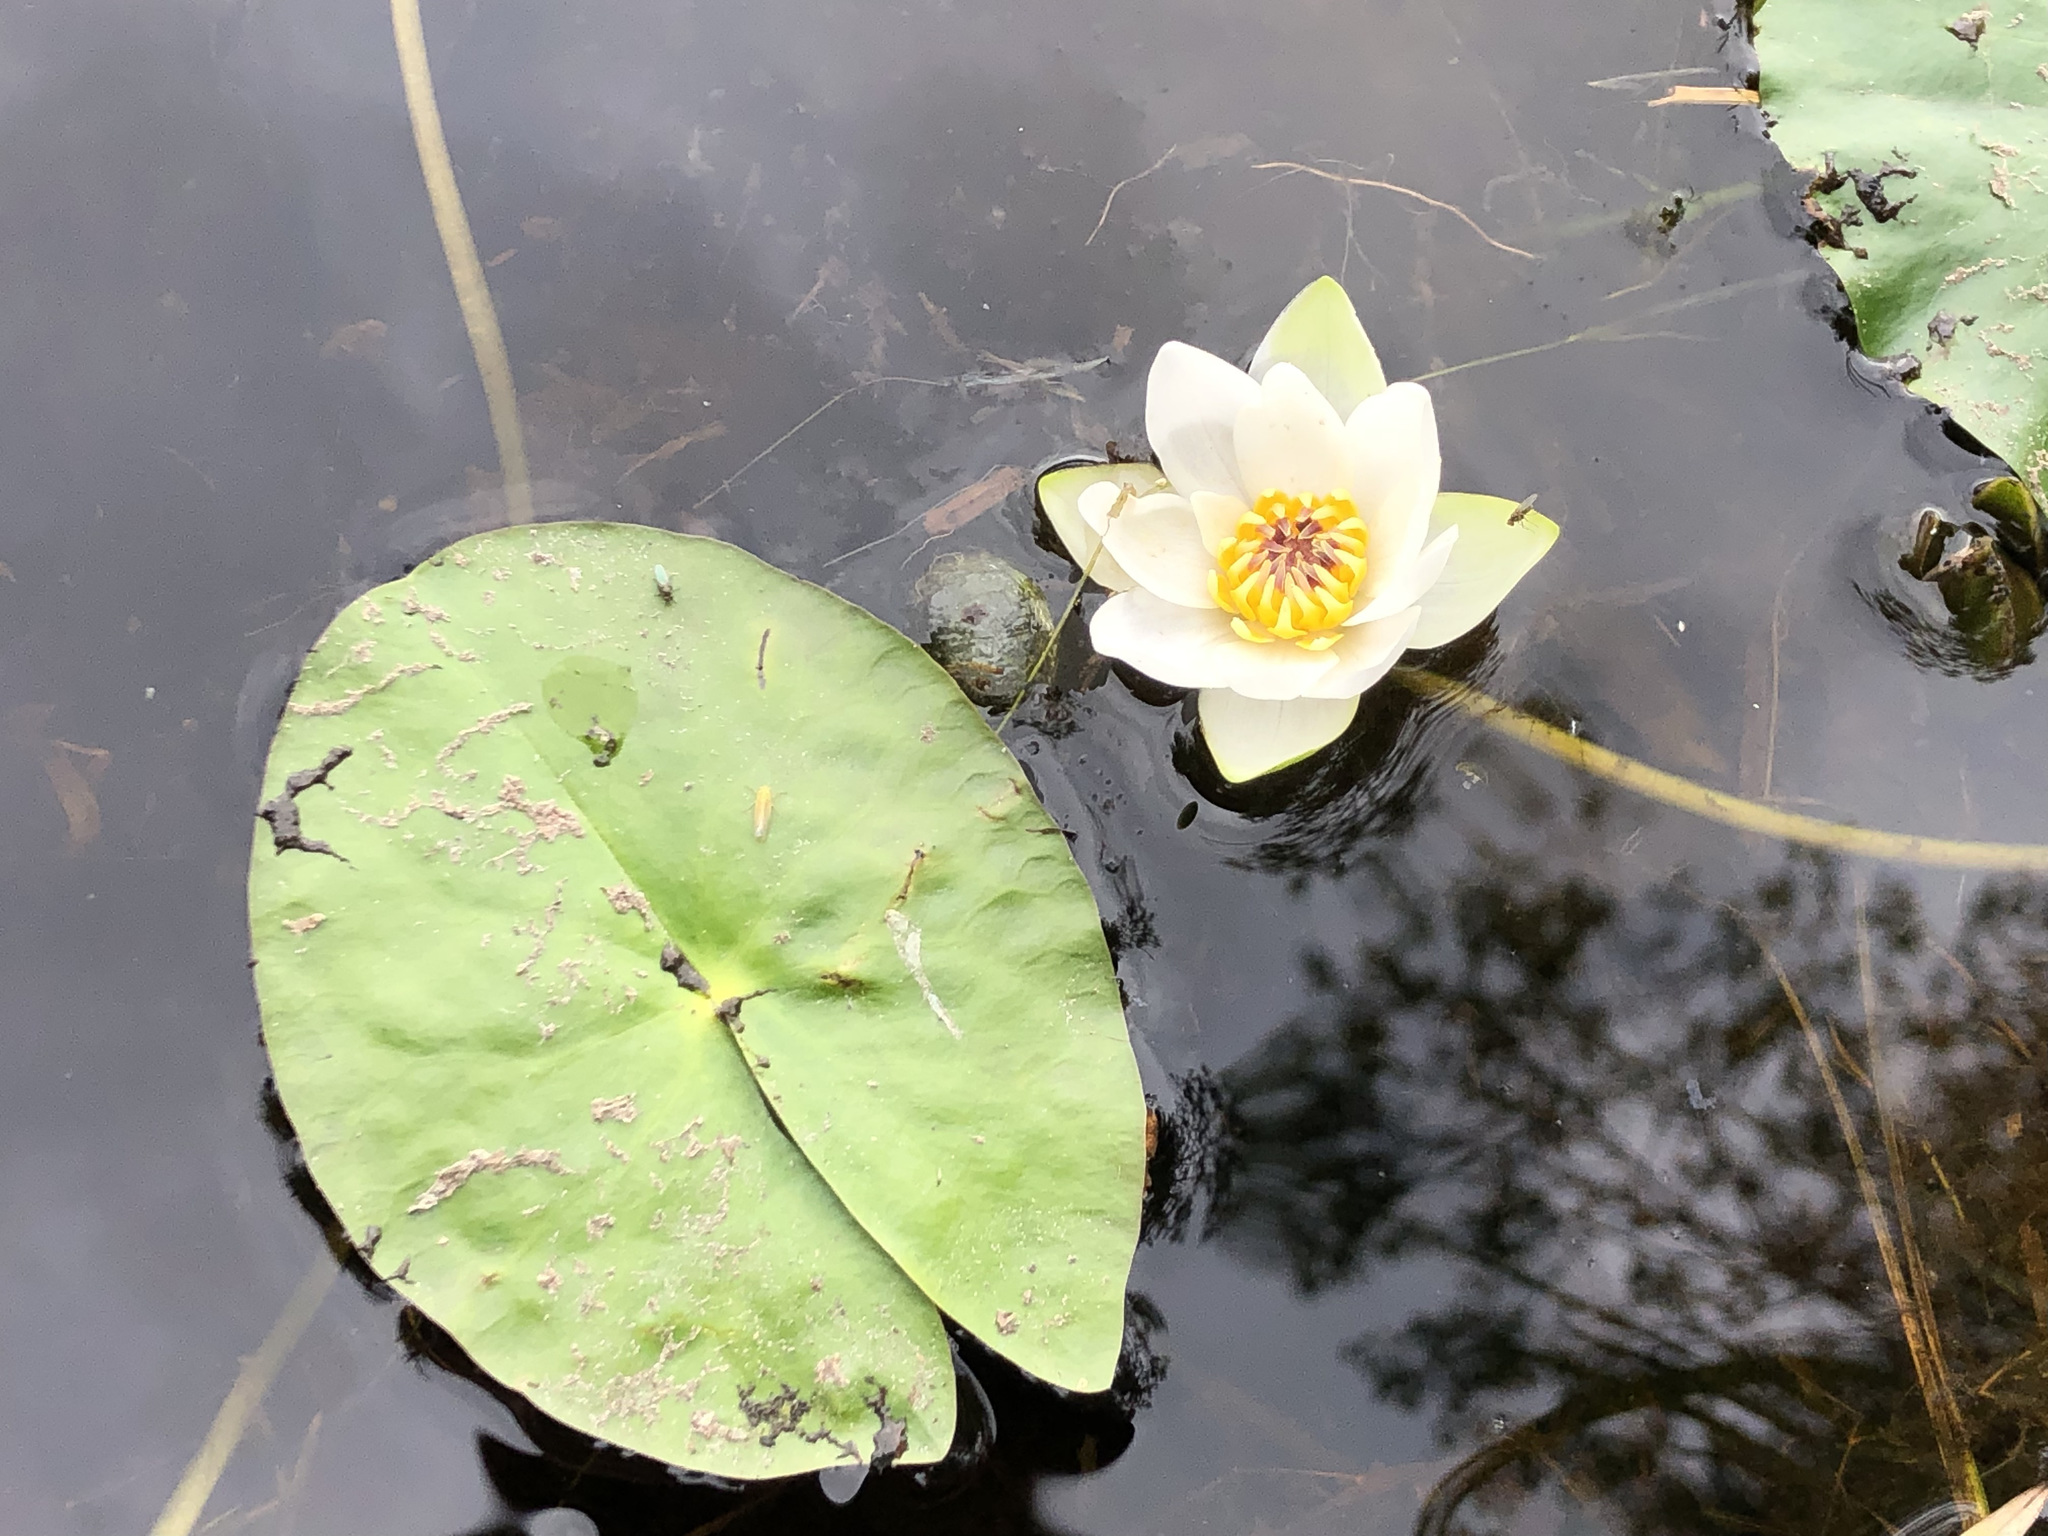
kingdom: Plantae
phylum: Tracheophyta
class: Magnoliopsida
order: Nymphaeales
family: Nymphaeaceae
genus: Nymphaea
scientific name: Nymphaea tetragona
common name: Pygmy water-lily
